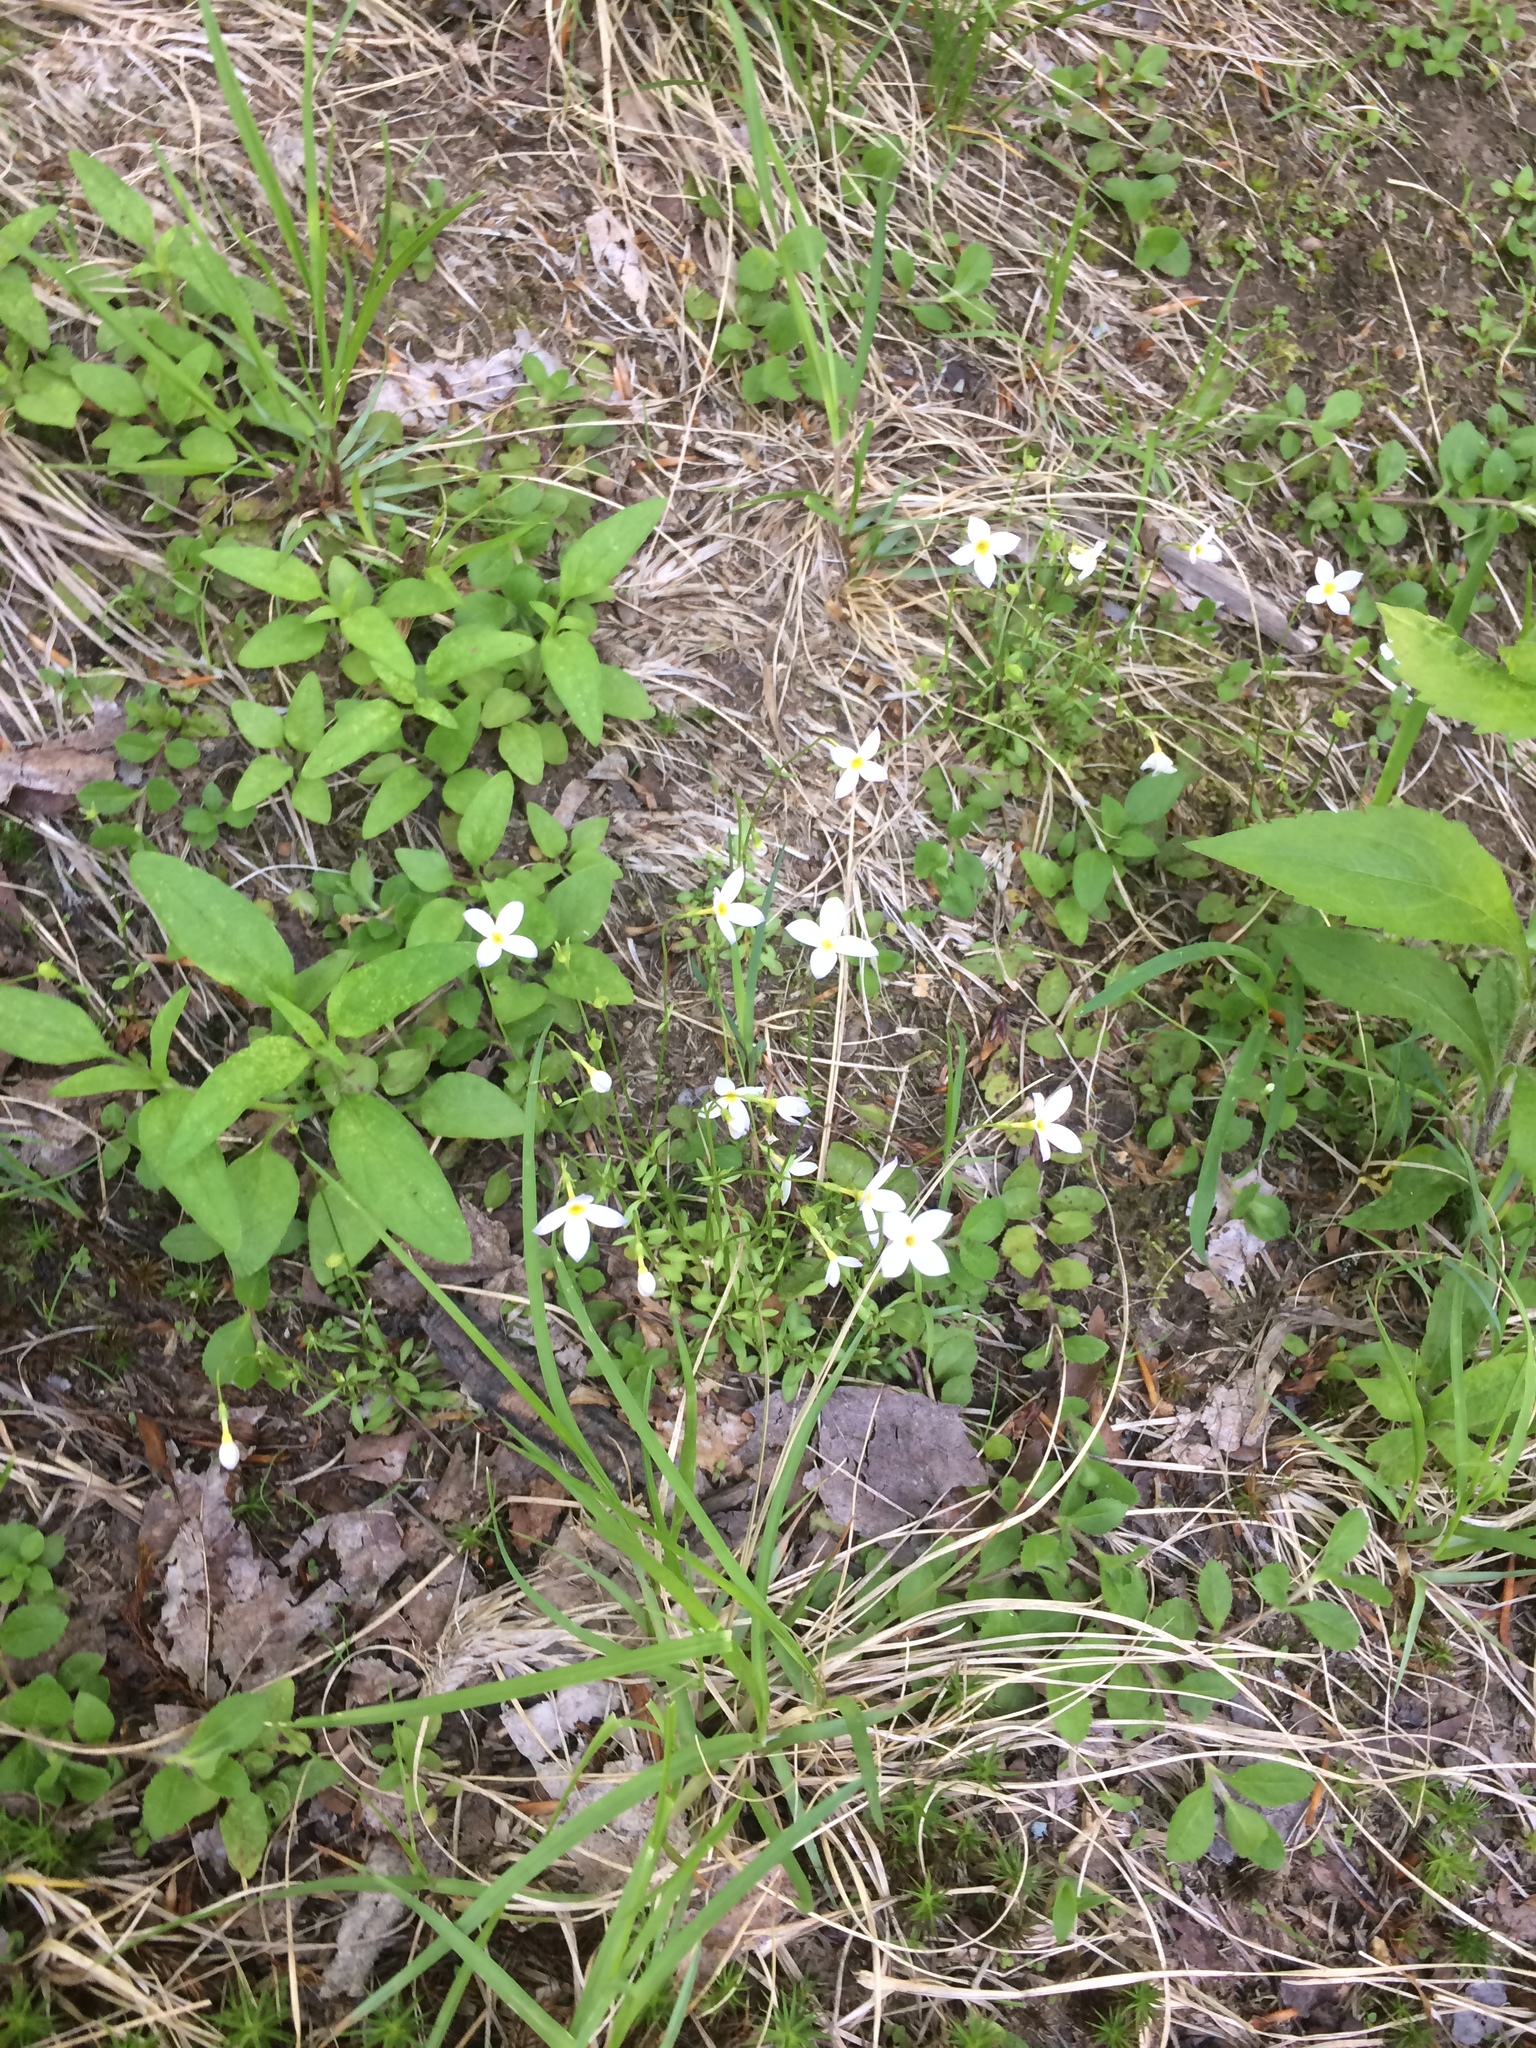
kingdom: Plantae
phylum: Tracheophyta
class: Magnoliopsida
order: Gentianales
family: Rubiaceae
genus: Houstonia
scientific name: Houstonia caerulea
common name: Bluets
